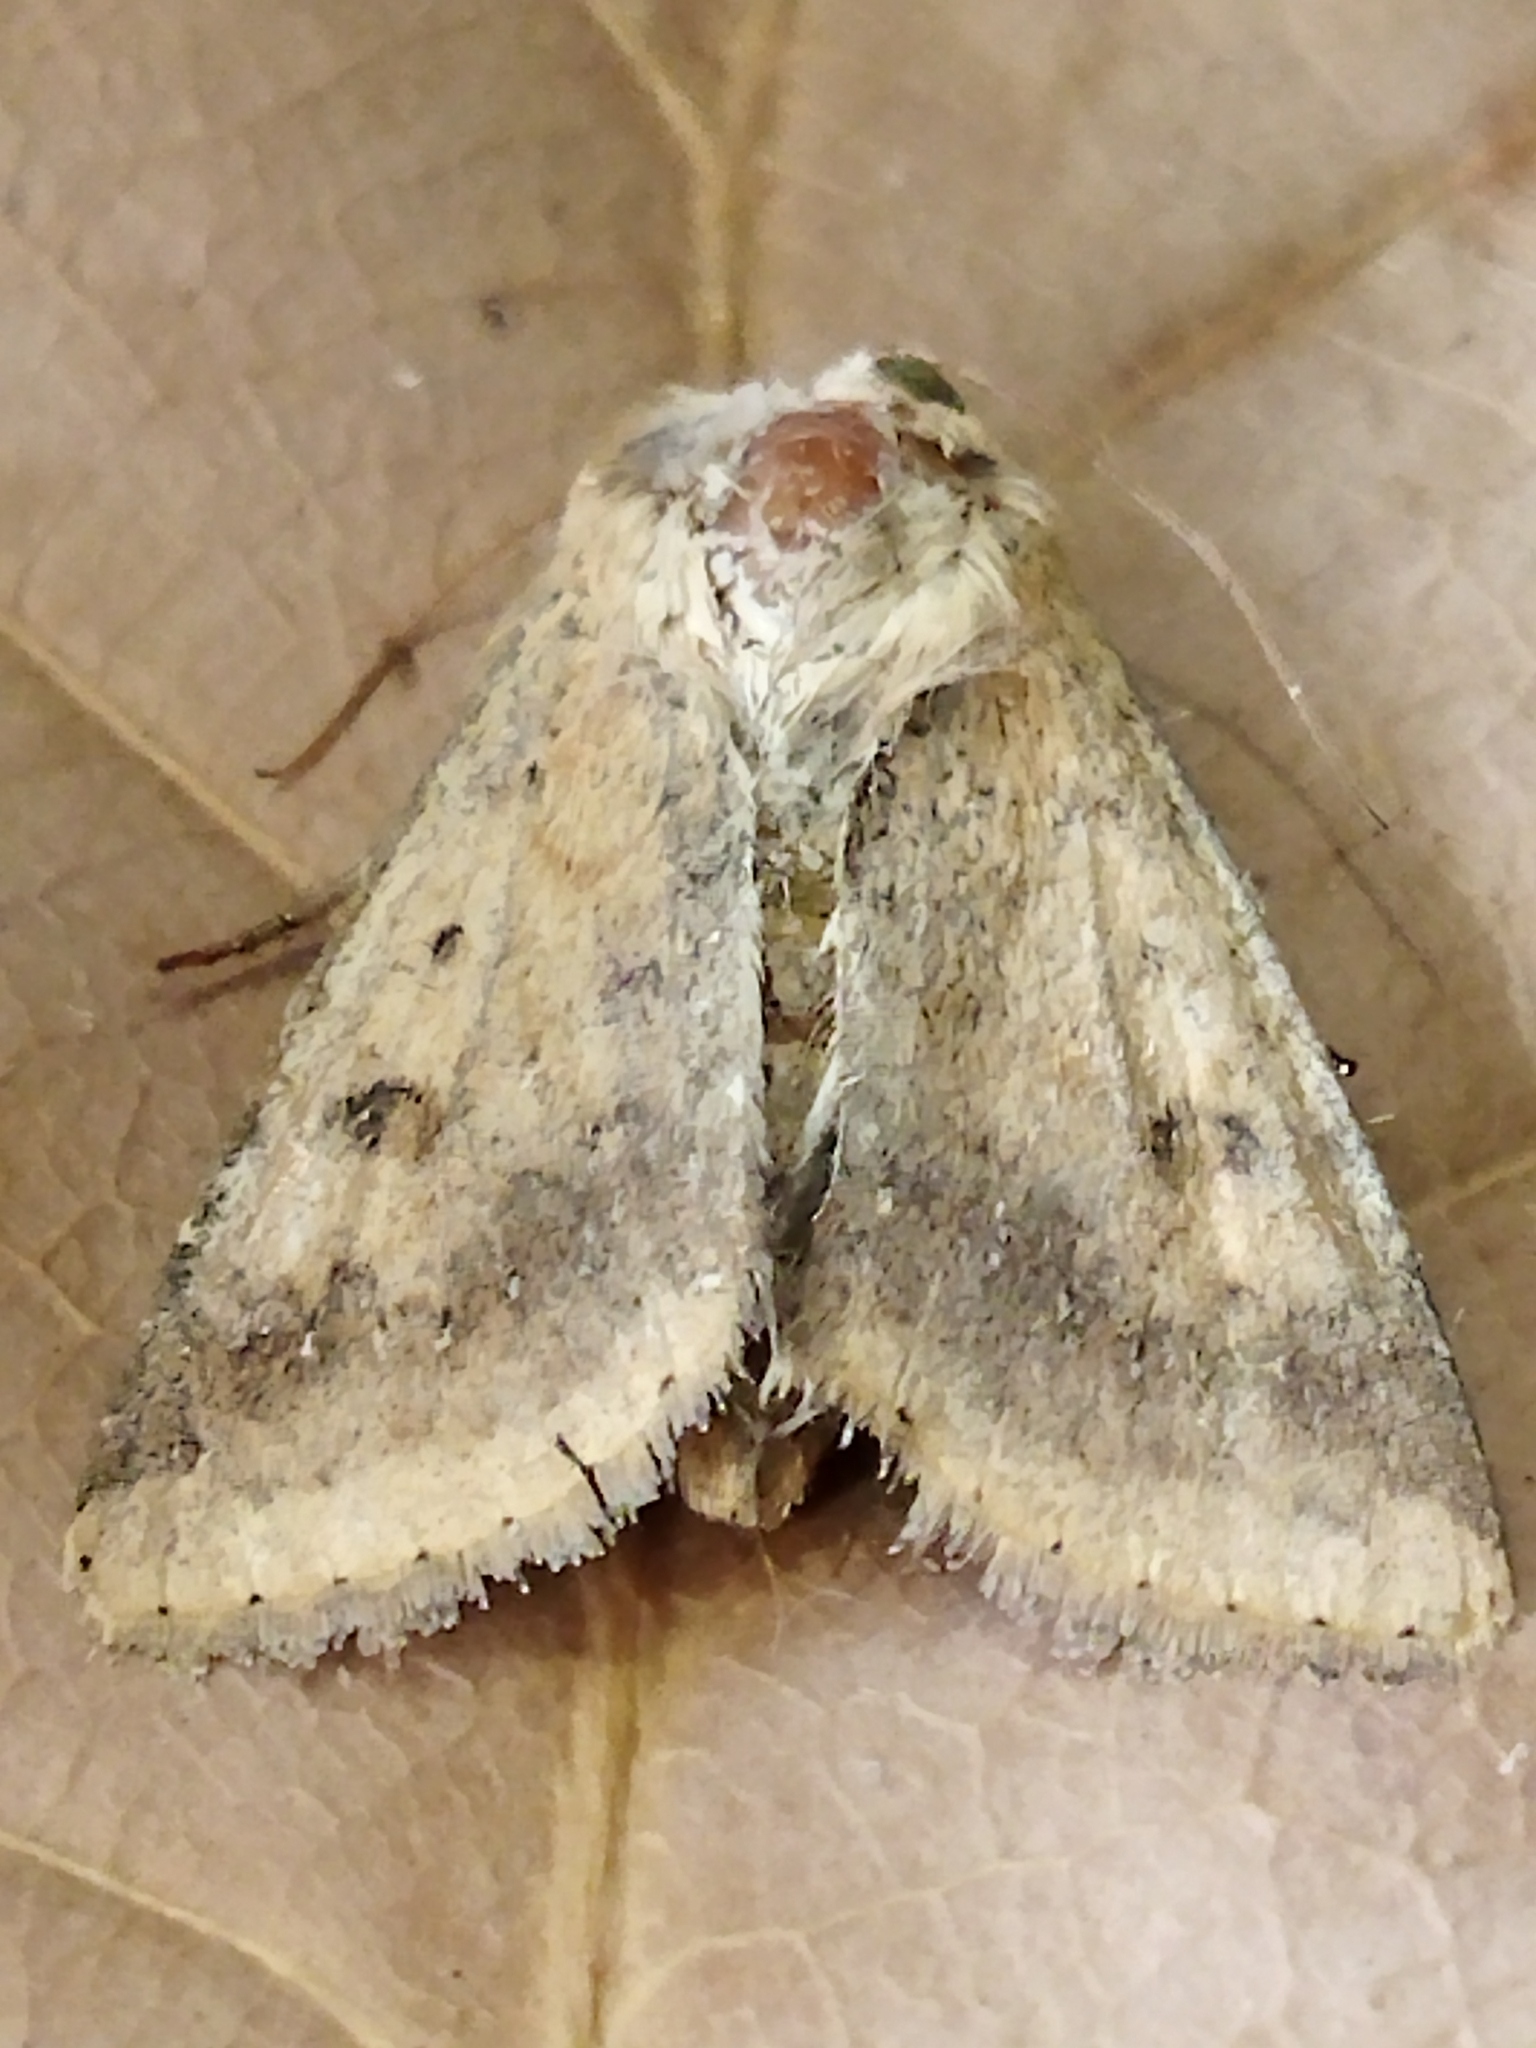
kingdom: Animalia
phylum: Arthropoda
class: Insecta
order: Lepidoptera
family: Noctuidae
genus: Helicoverpa
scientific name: Helicoverpa armigera
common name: Cotton bollworm
